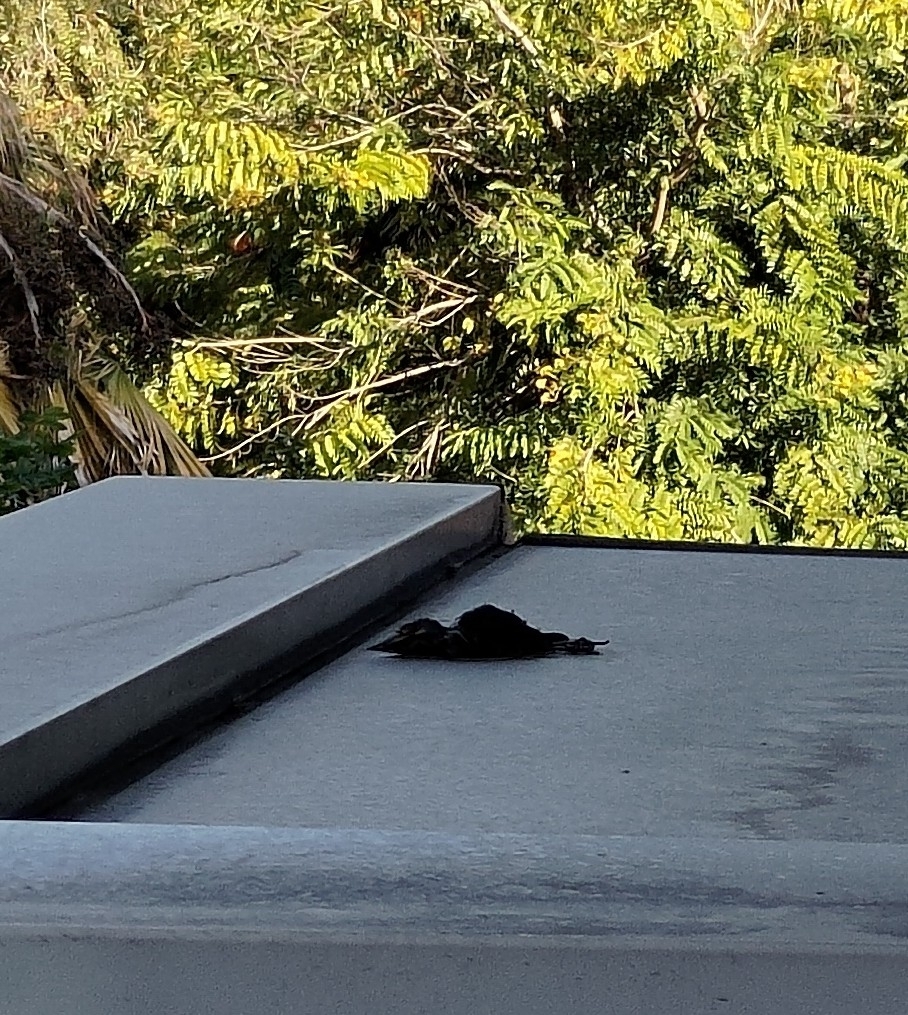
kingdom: Animalia
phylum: Chordata
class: Aves
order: Piciformes
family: Megalaimidae
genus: Psilopogon
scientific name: Psilopogon nuchalis
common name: Taiwan barbet
